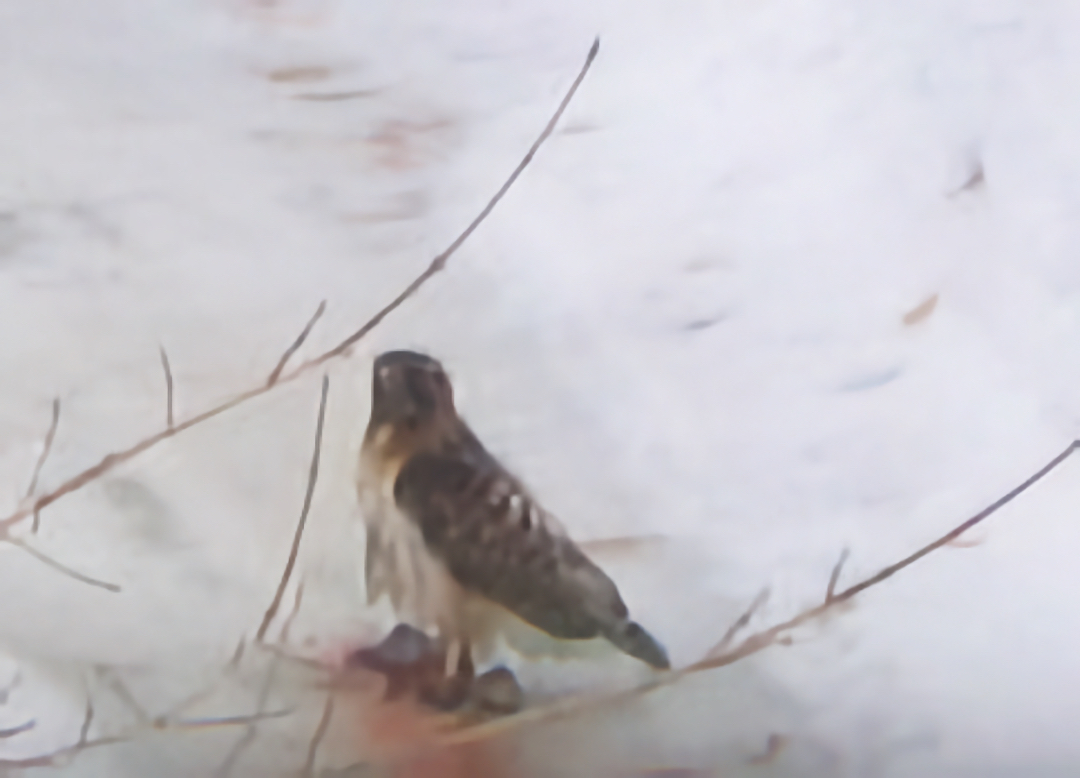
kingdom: Animalia
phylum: Chordata
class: Aves
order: Accipitriformes
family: Accipitridae
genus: Buteo
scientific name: Buteo jamaicensis
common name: Red-tailed hawk
